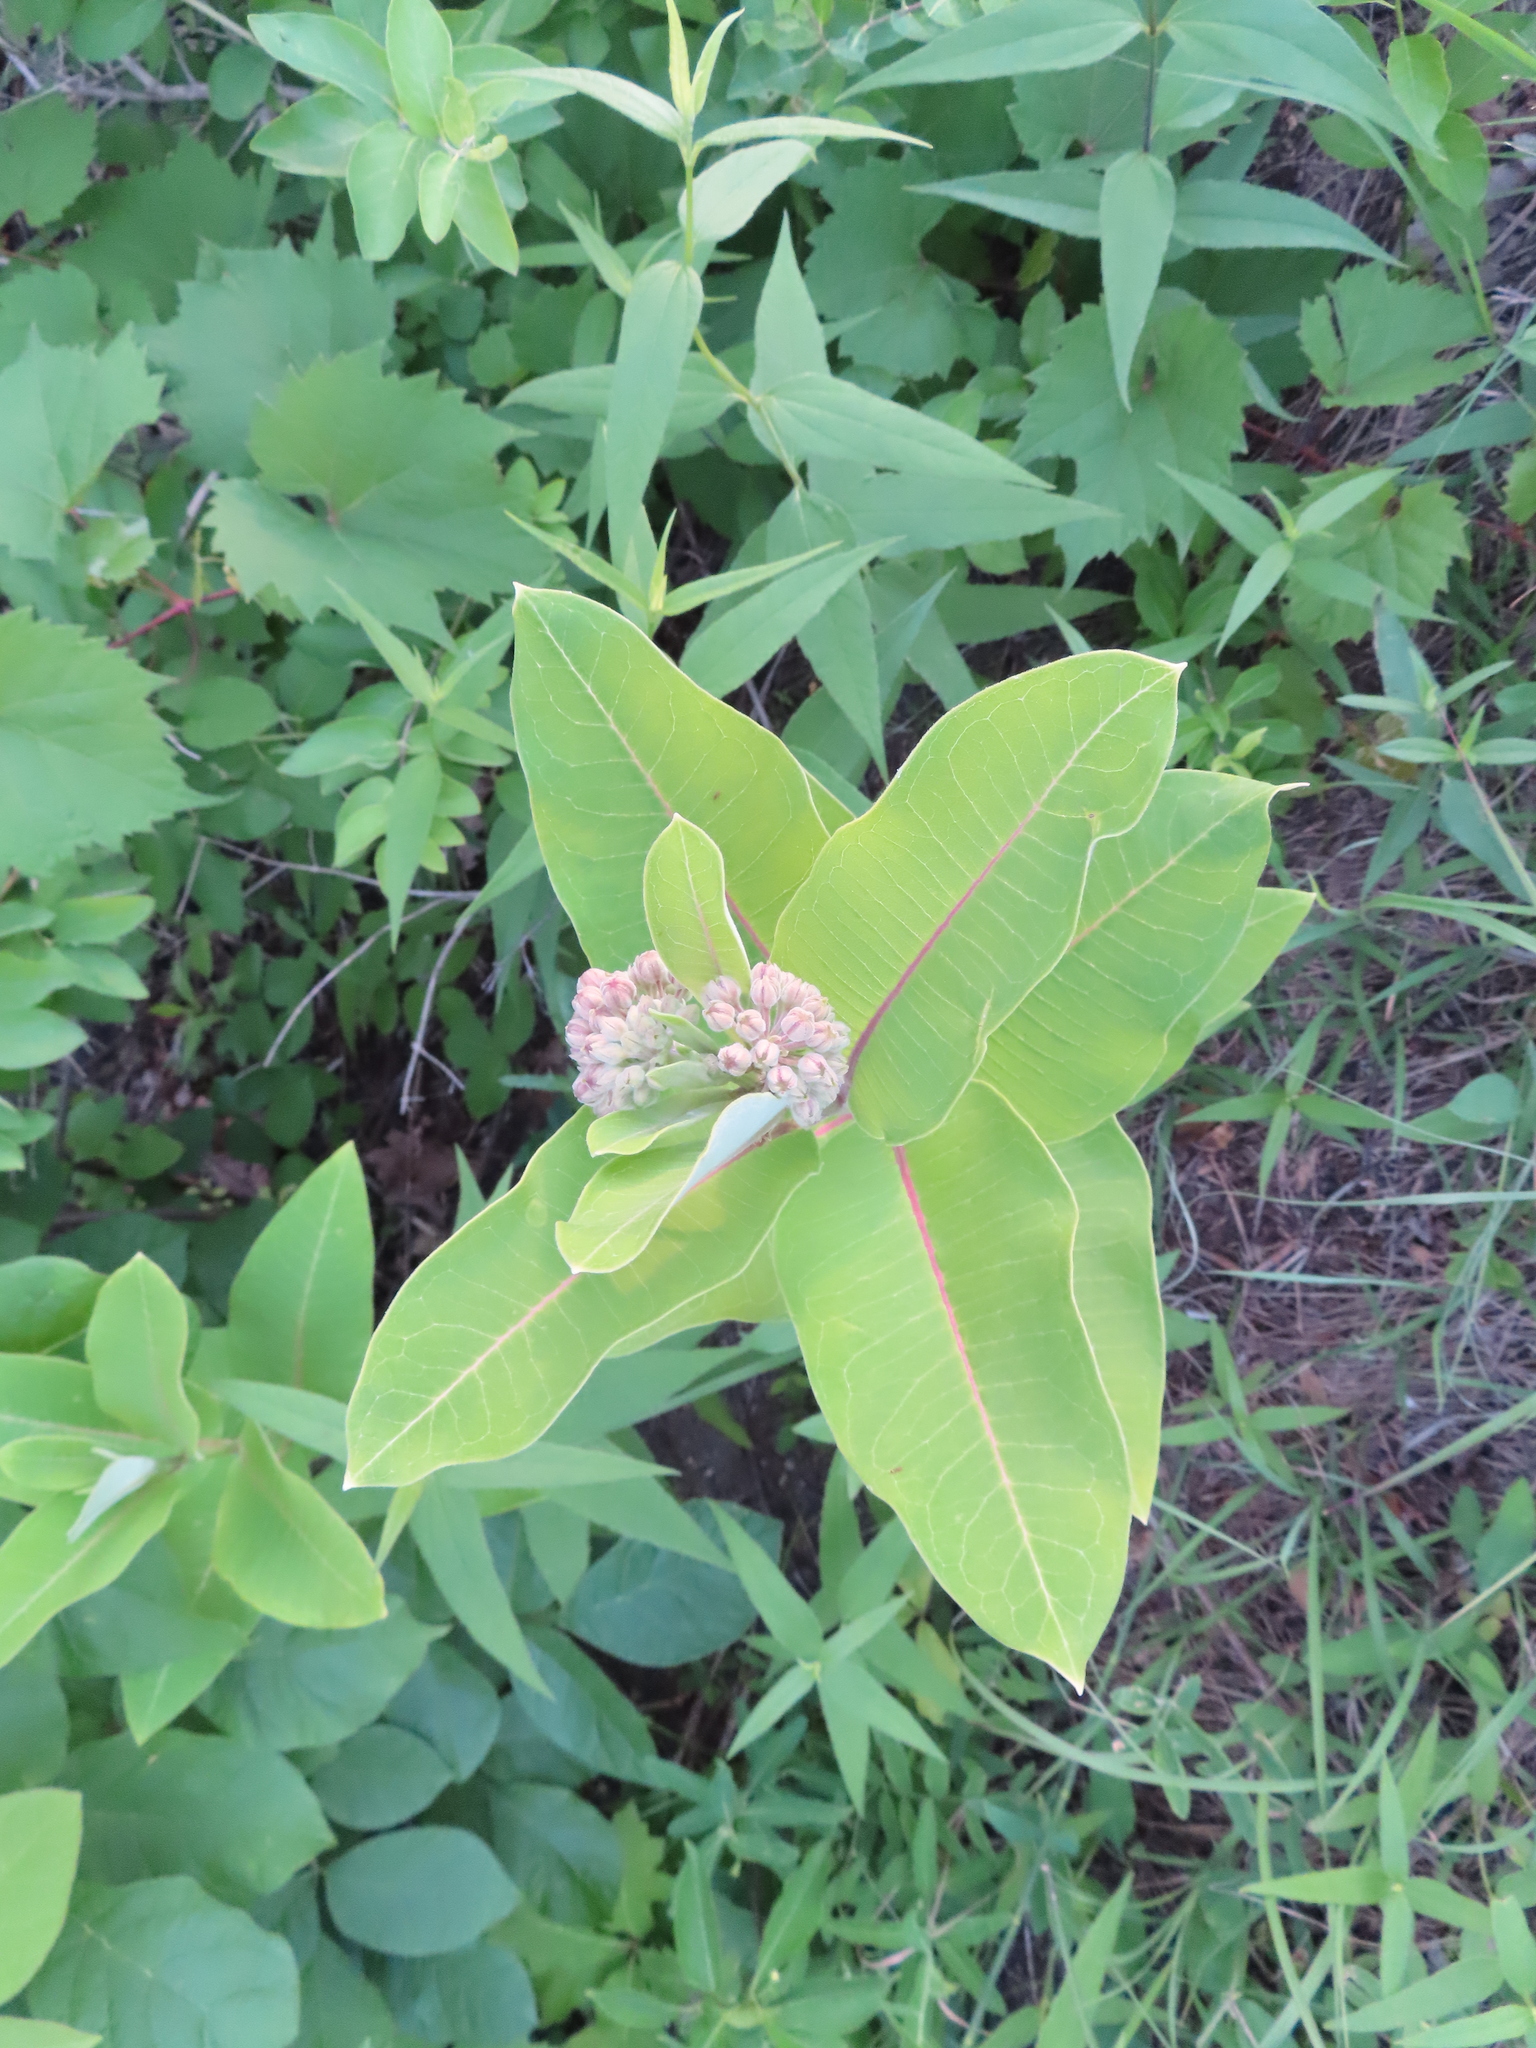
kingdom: Plantae
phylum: Tracheophyta
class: Magnoliopsida
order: Gentianales
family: Apocynaceae
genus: Asclepias
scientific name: Asclepias syriaca
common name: Common milkweed
